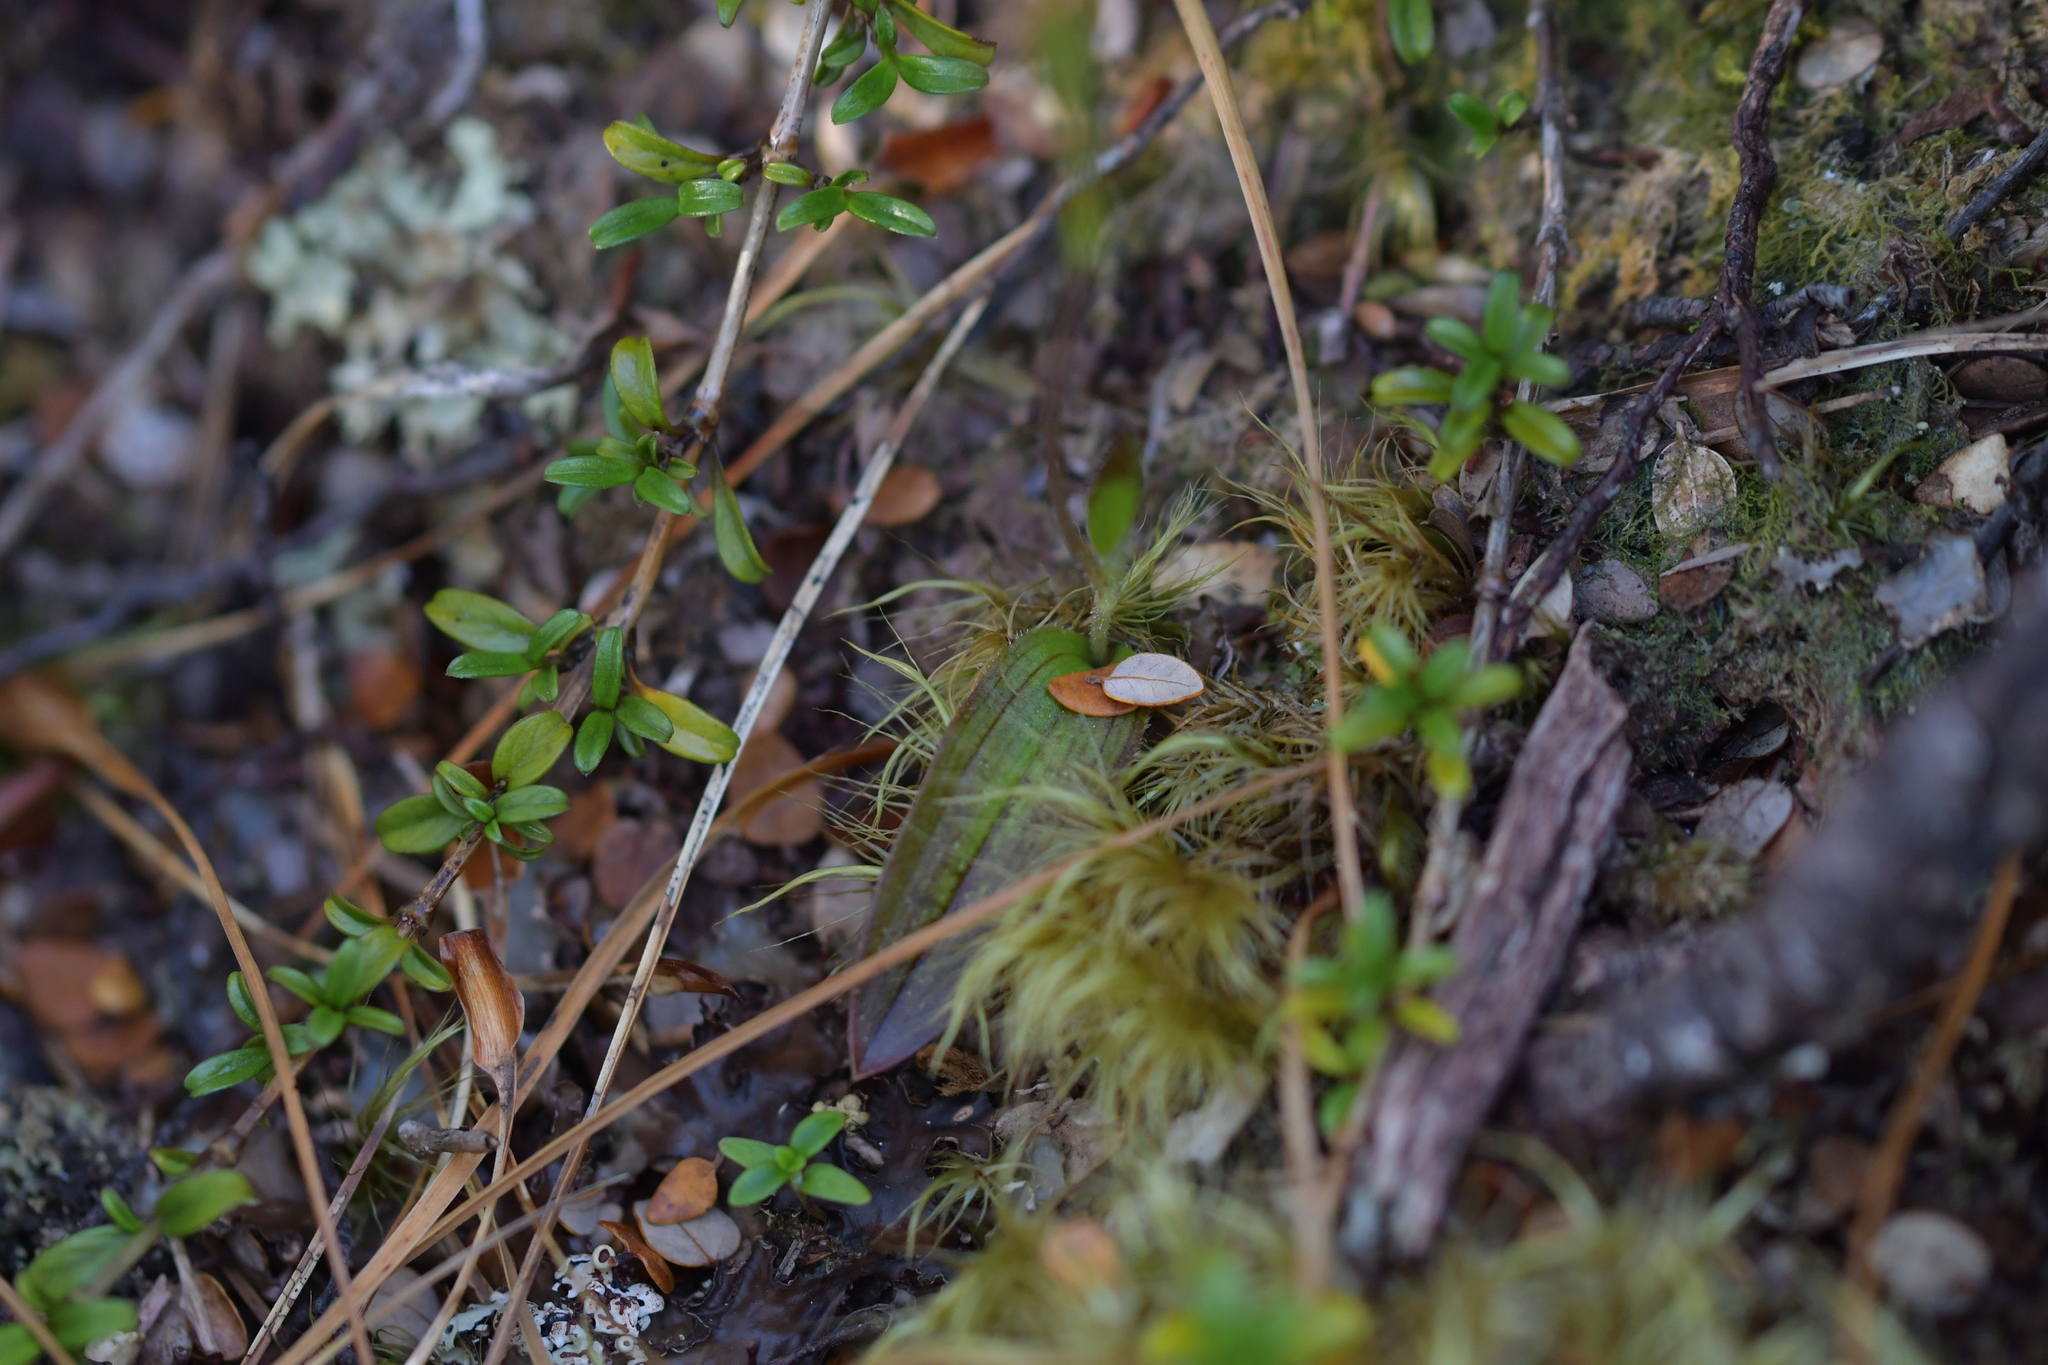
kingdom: Plantae
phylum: Tracheophyta
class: Liliopsida
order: Asparagales
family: Orchidaceae
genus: Aporostylis
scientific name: Aporostylis bifolia
